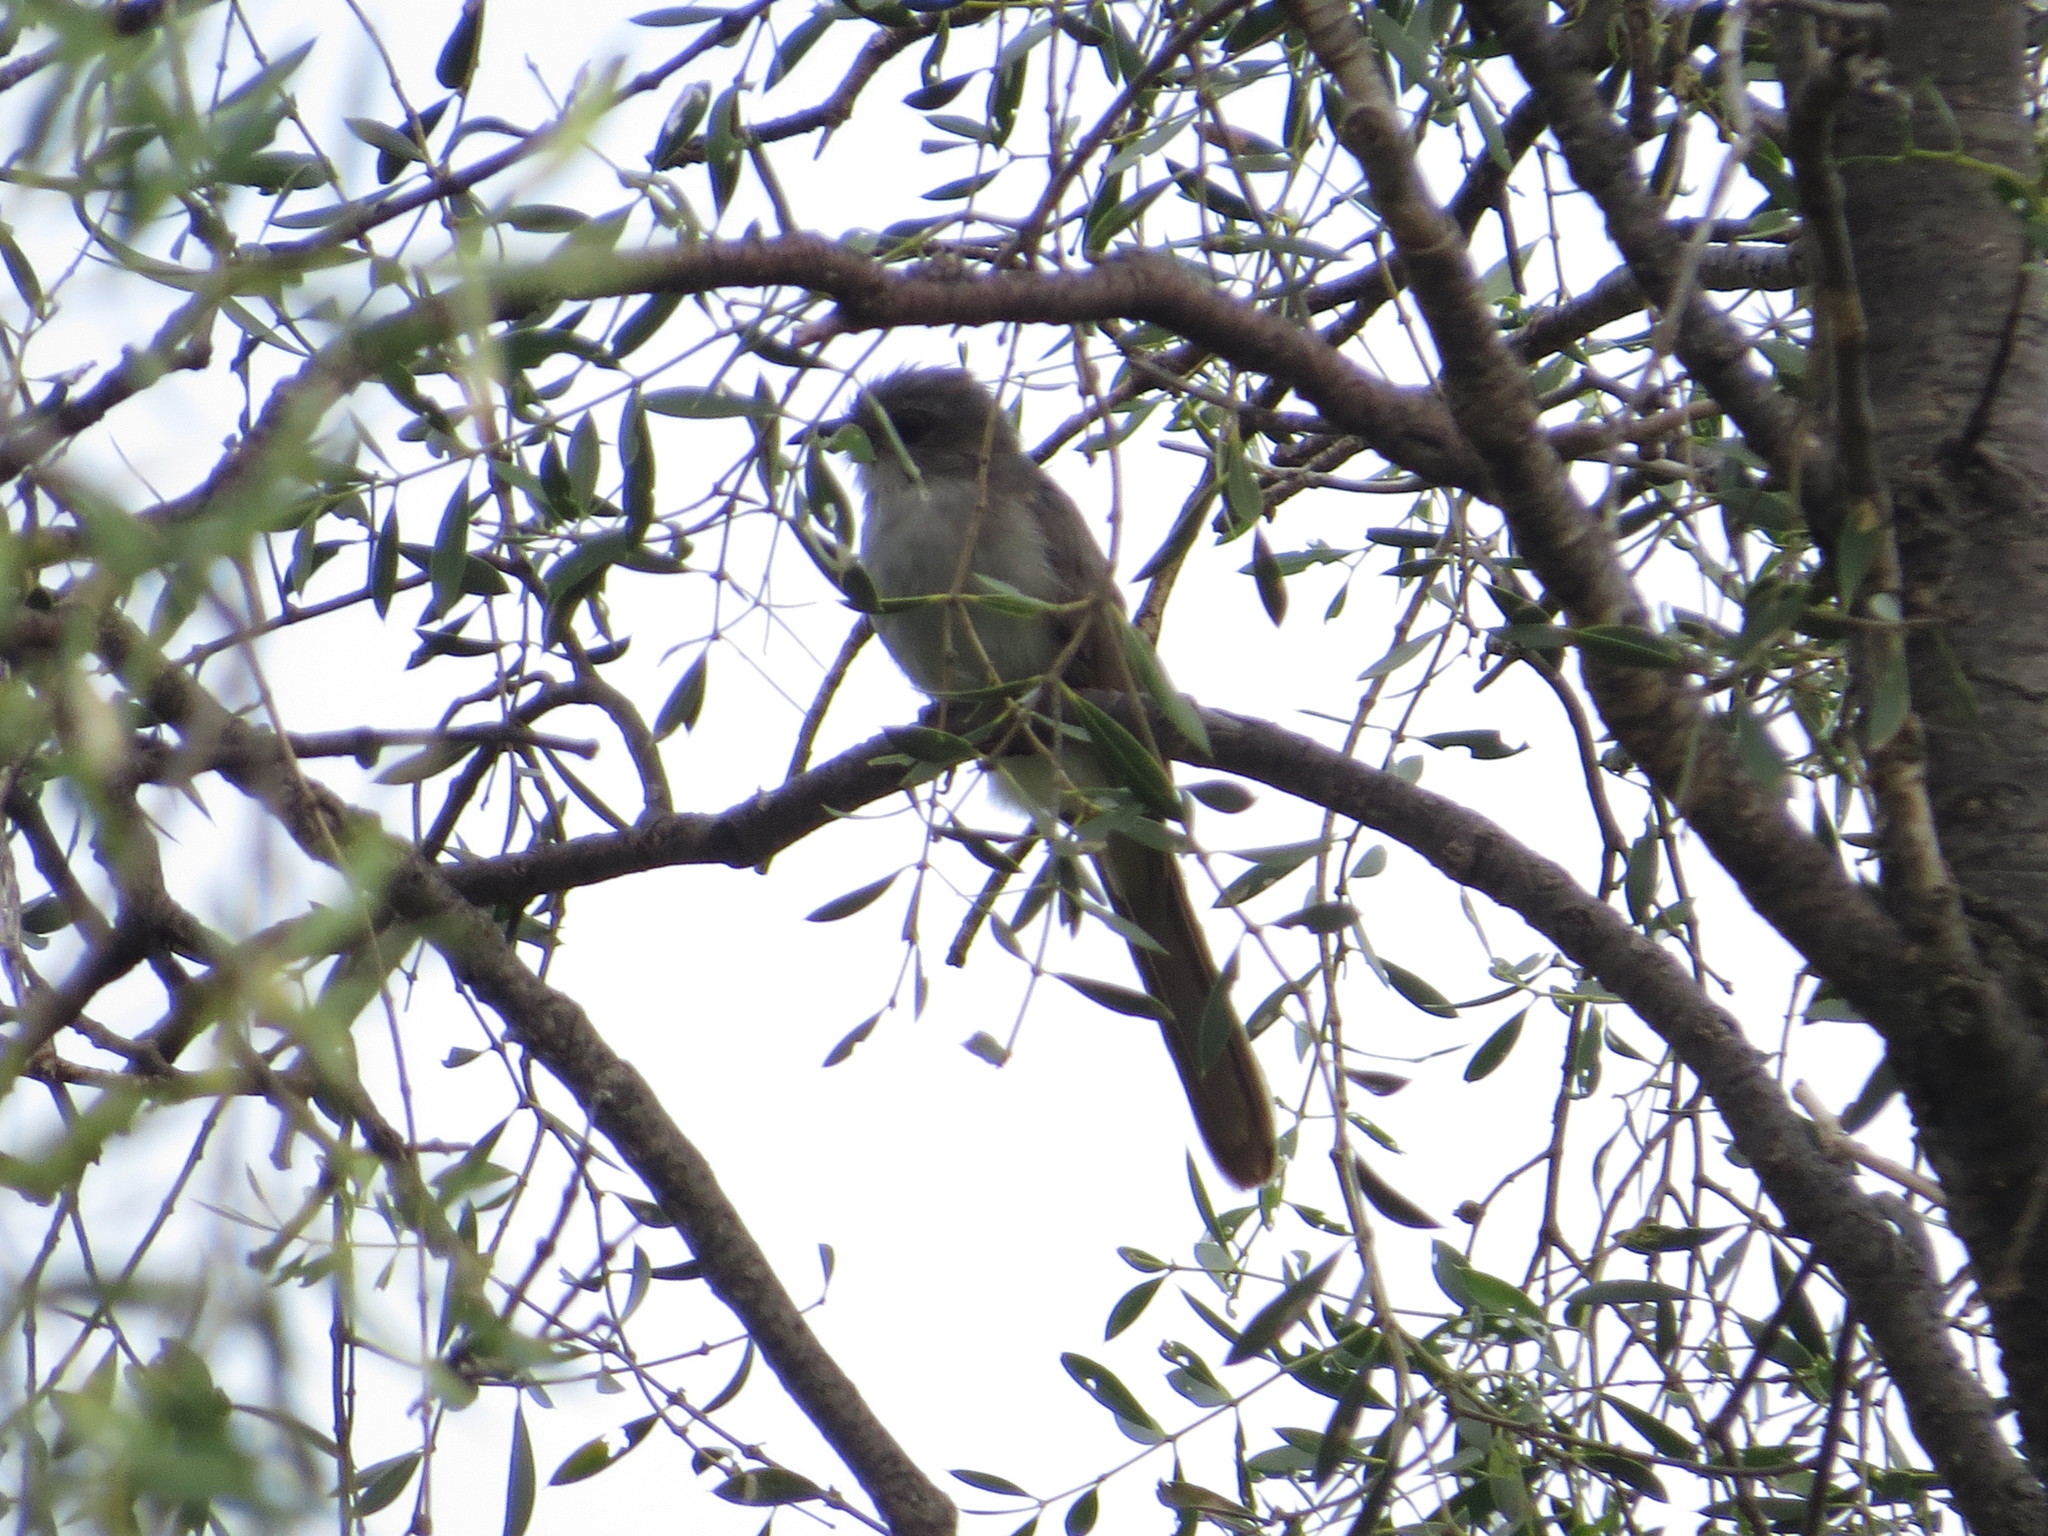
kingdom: Animalia
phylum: Chordata
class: Aves
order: Cuculiformes
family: Cuculidae
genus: Coccyzus
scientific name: Coccyzus cinereus
